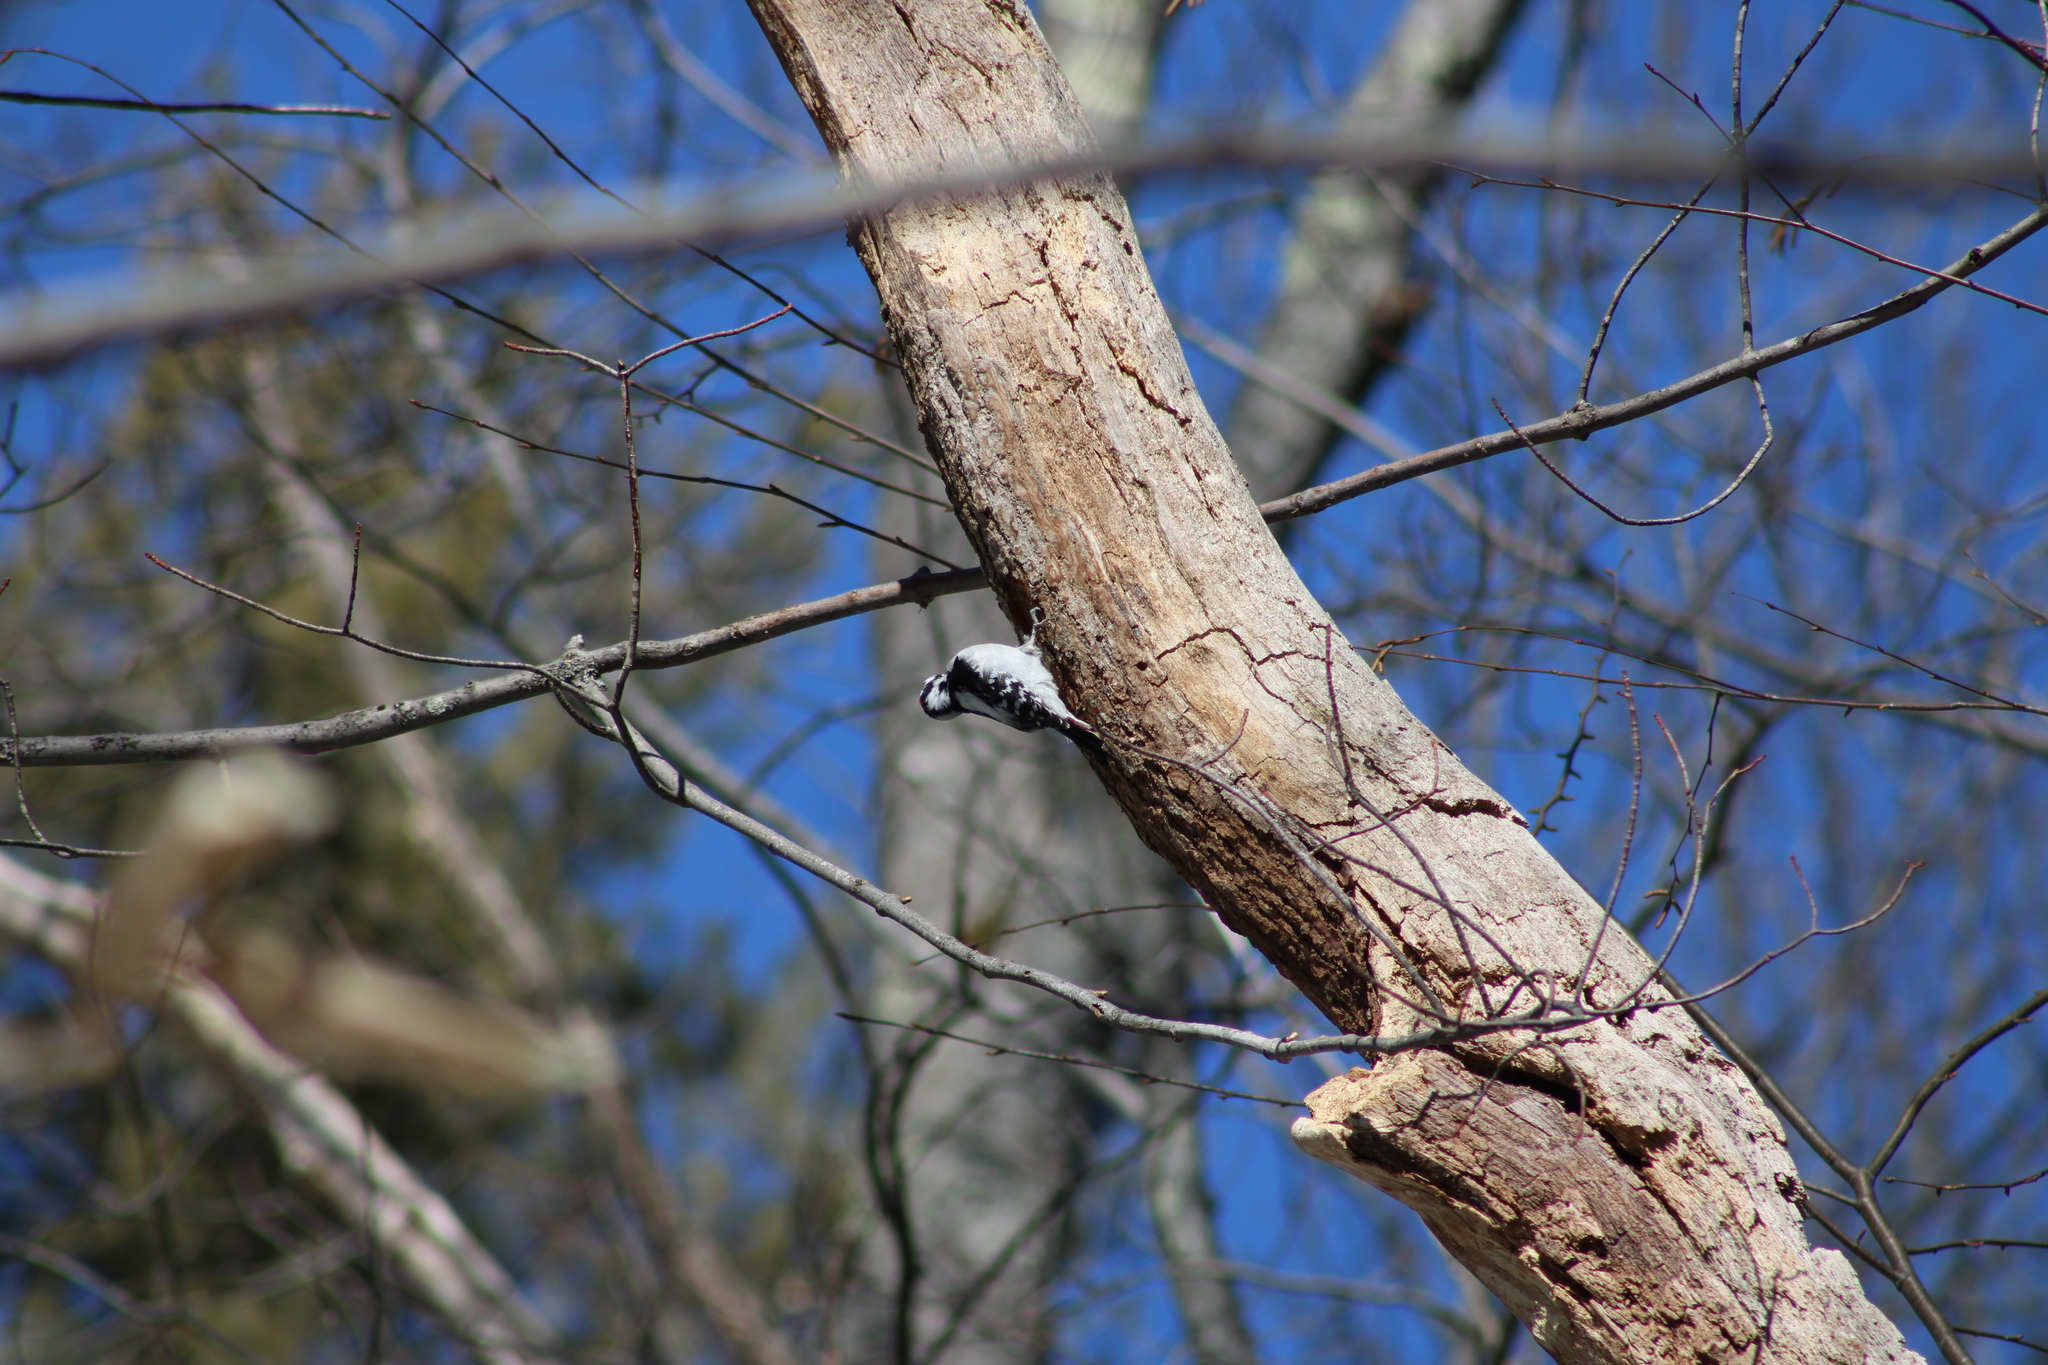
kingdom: Animalia
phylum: Chordata
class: Aves
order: Piciformes
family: Picidae
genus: Dryobates
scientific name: Dryobates pubescens
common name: Downy woodpecker
